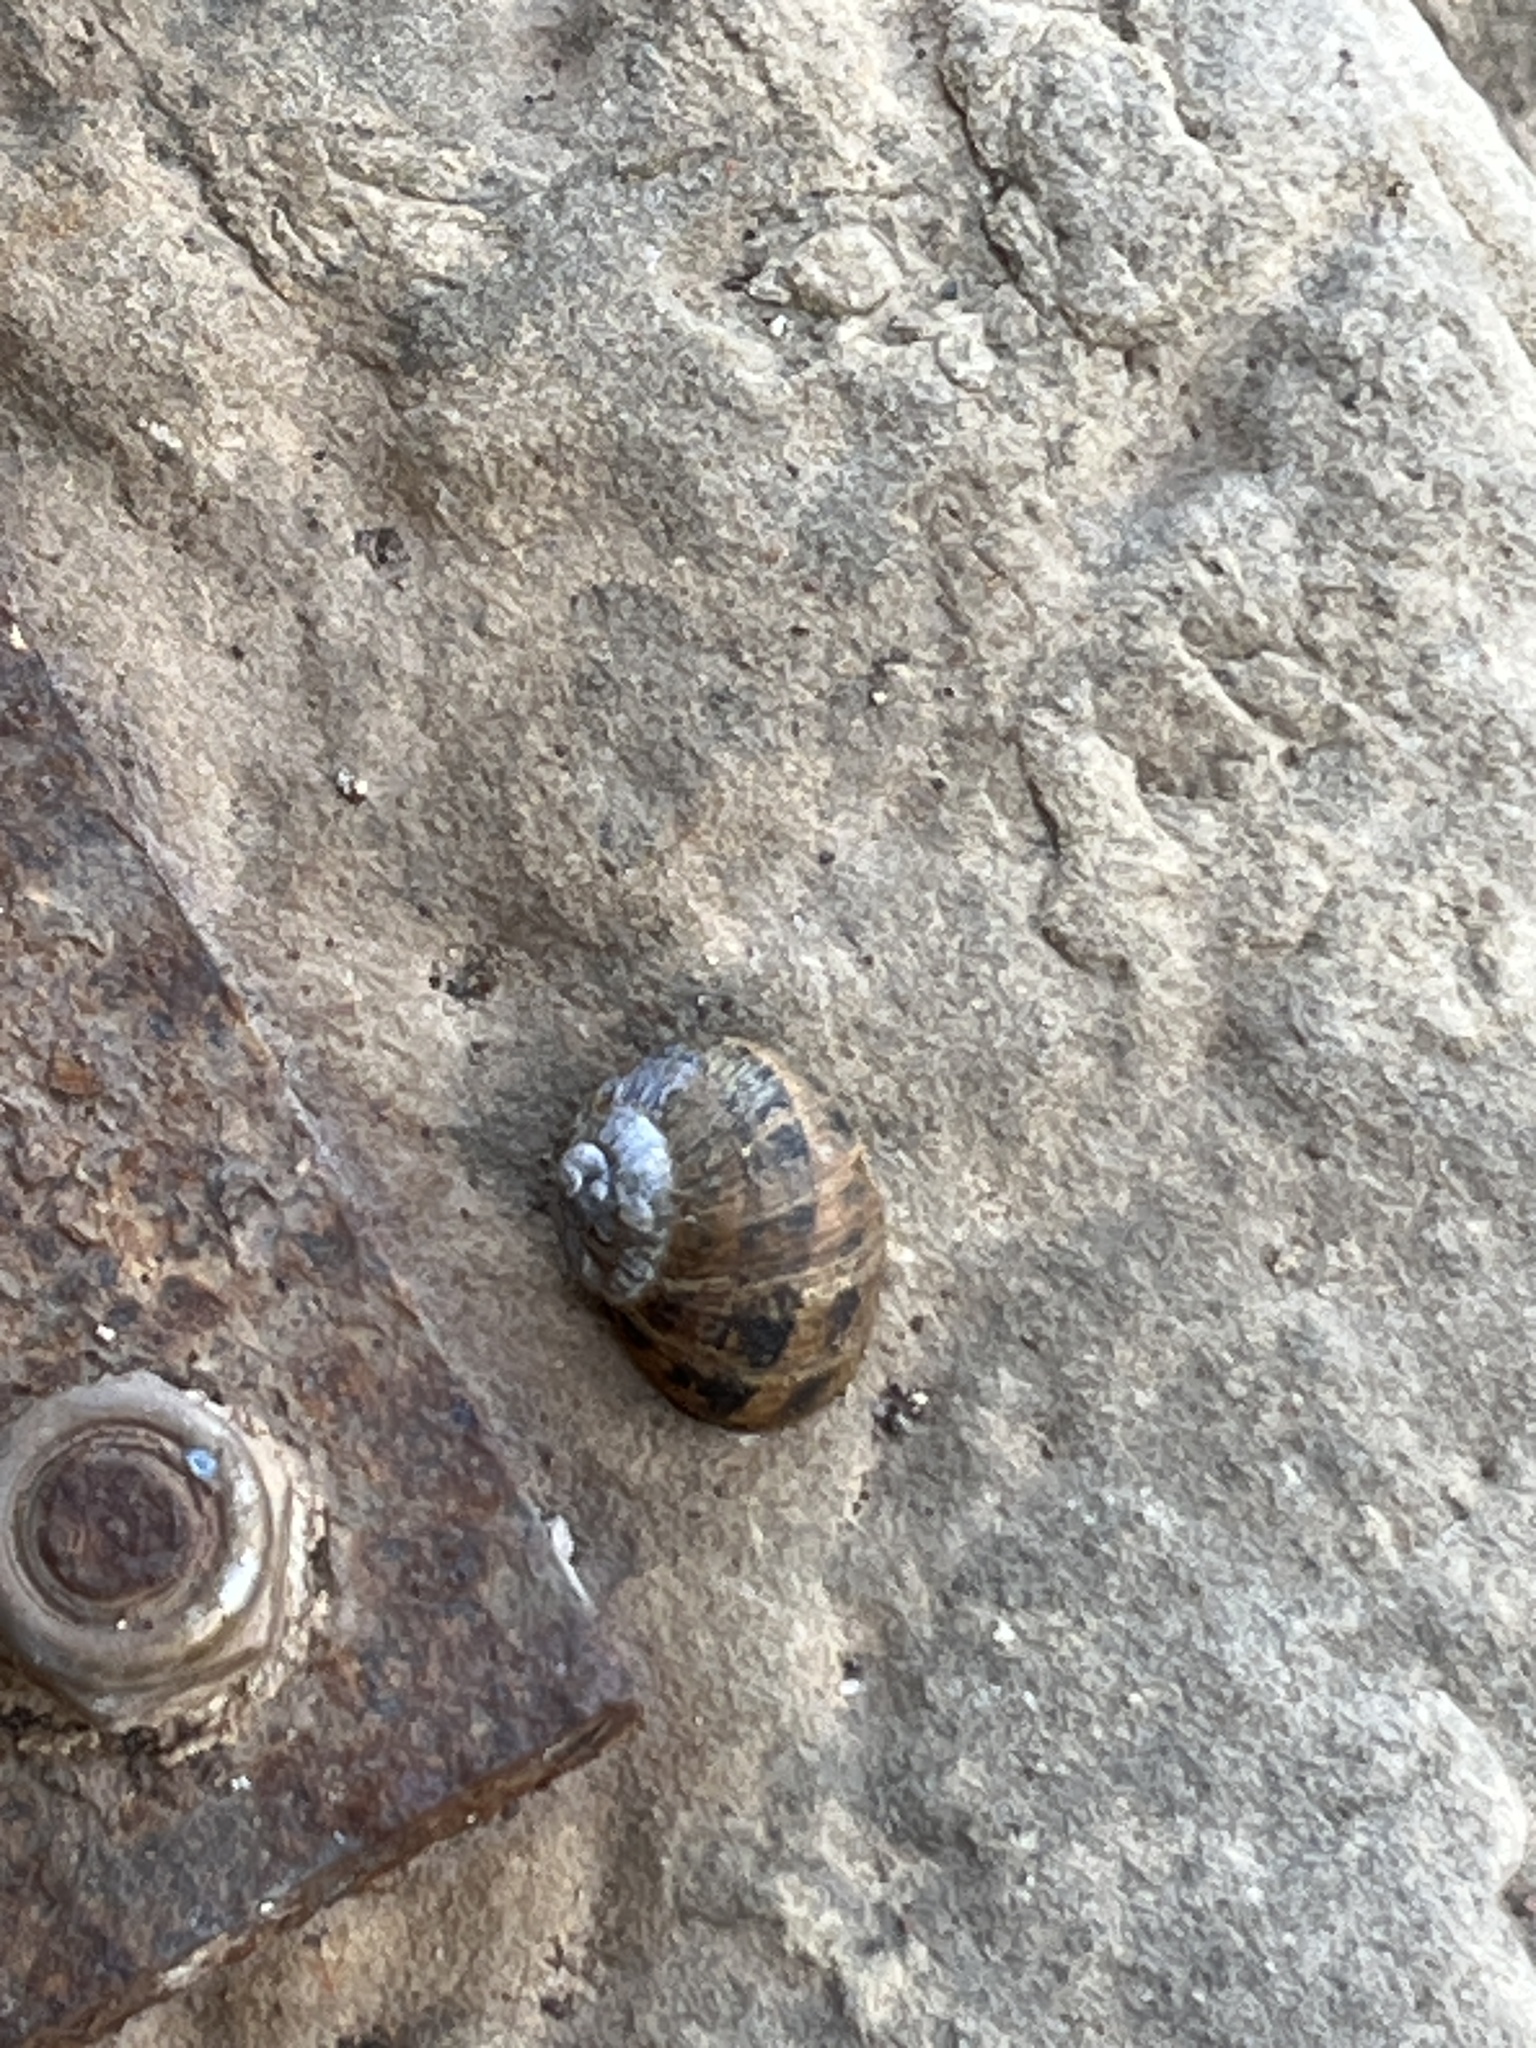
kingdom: Animalia
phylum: Mollusca
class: Gastropoda
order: Stylommatophora
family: Helicidae
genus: Cornu
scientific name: Cornu aspersum
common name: Brown garden snail
